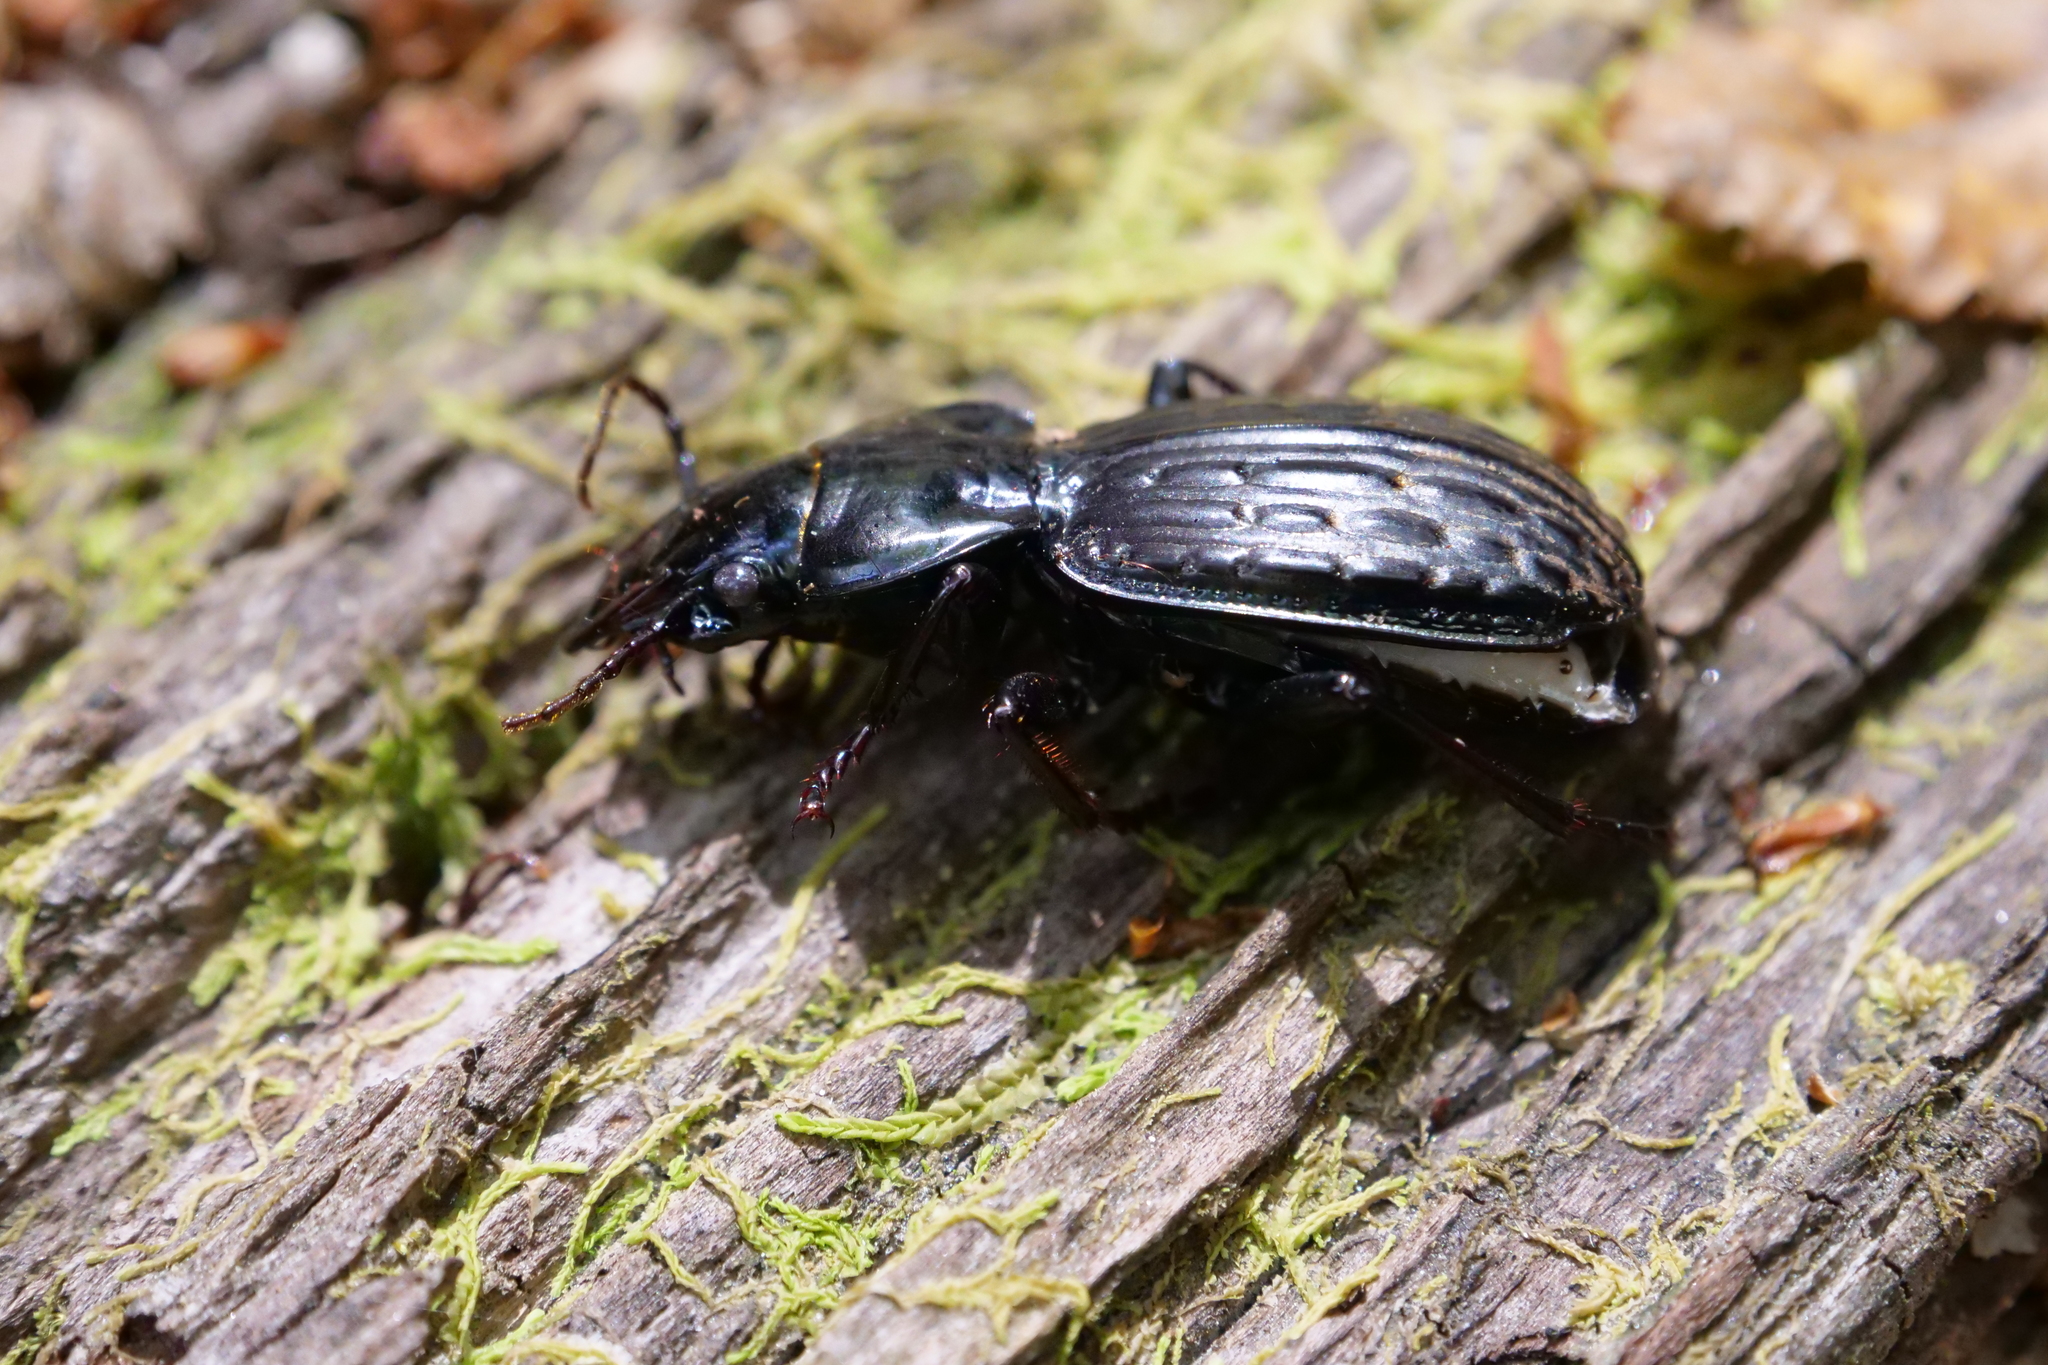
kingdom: Animalia
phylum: Arthropoda
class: Insecta
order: Coleoptera
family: Carabidae
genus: Megadromus
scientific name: Megadromus bullatus
